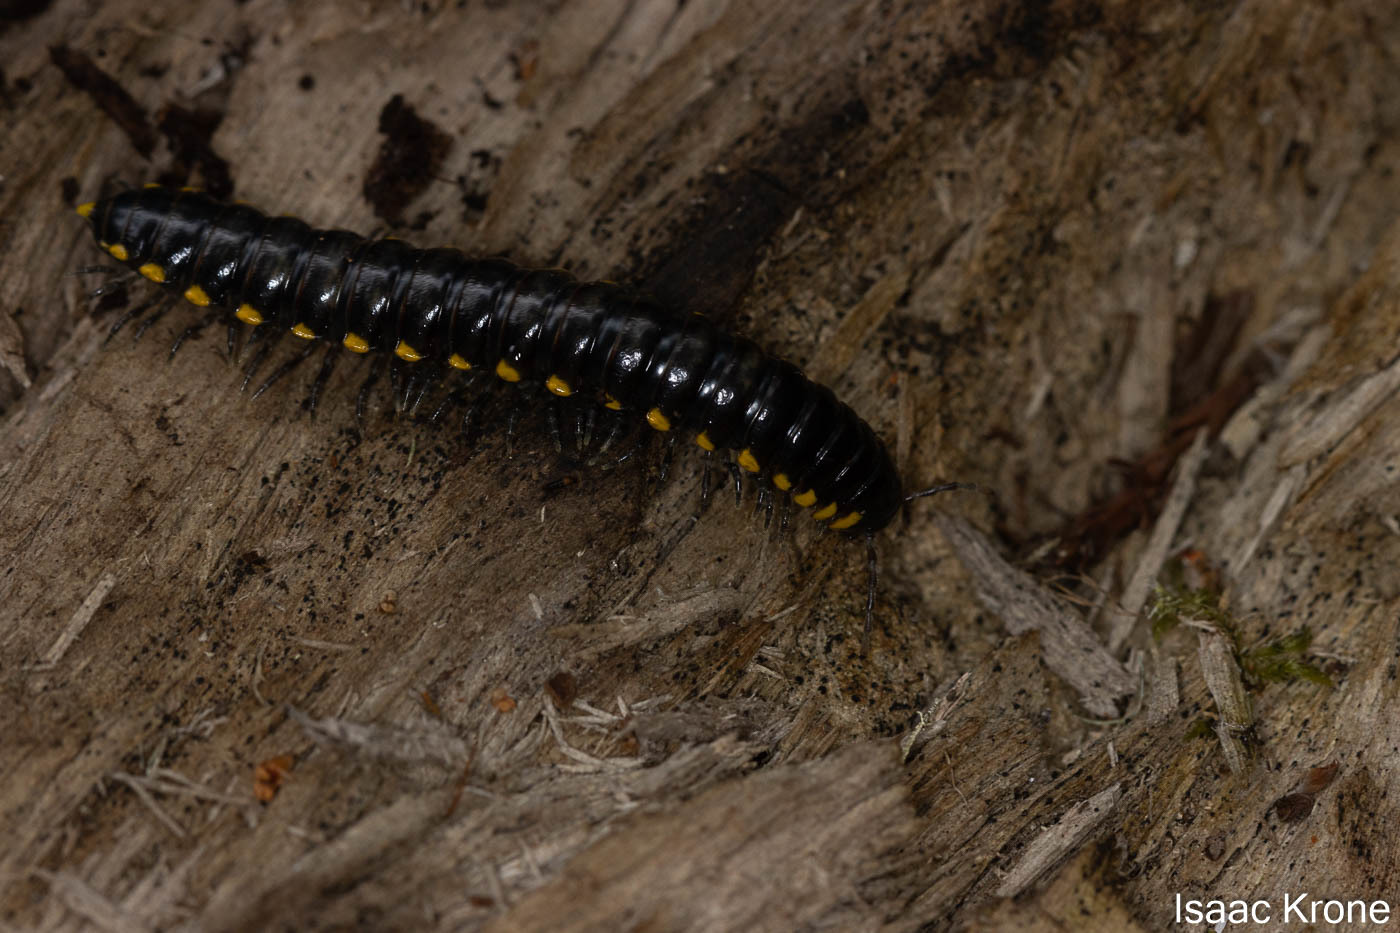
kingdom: Animalia
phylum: Arthropoda
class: Diplopoda
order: Polydesmida
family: Xystodesmidae
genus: Harpaphe
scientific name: Harpaphe haydeniana
